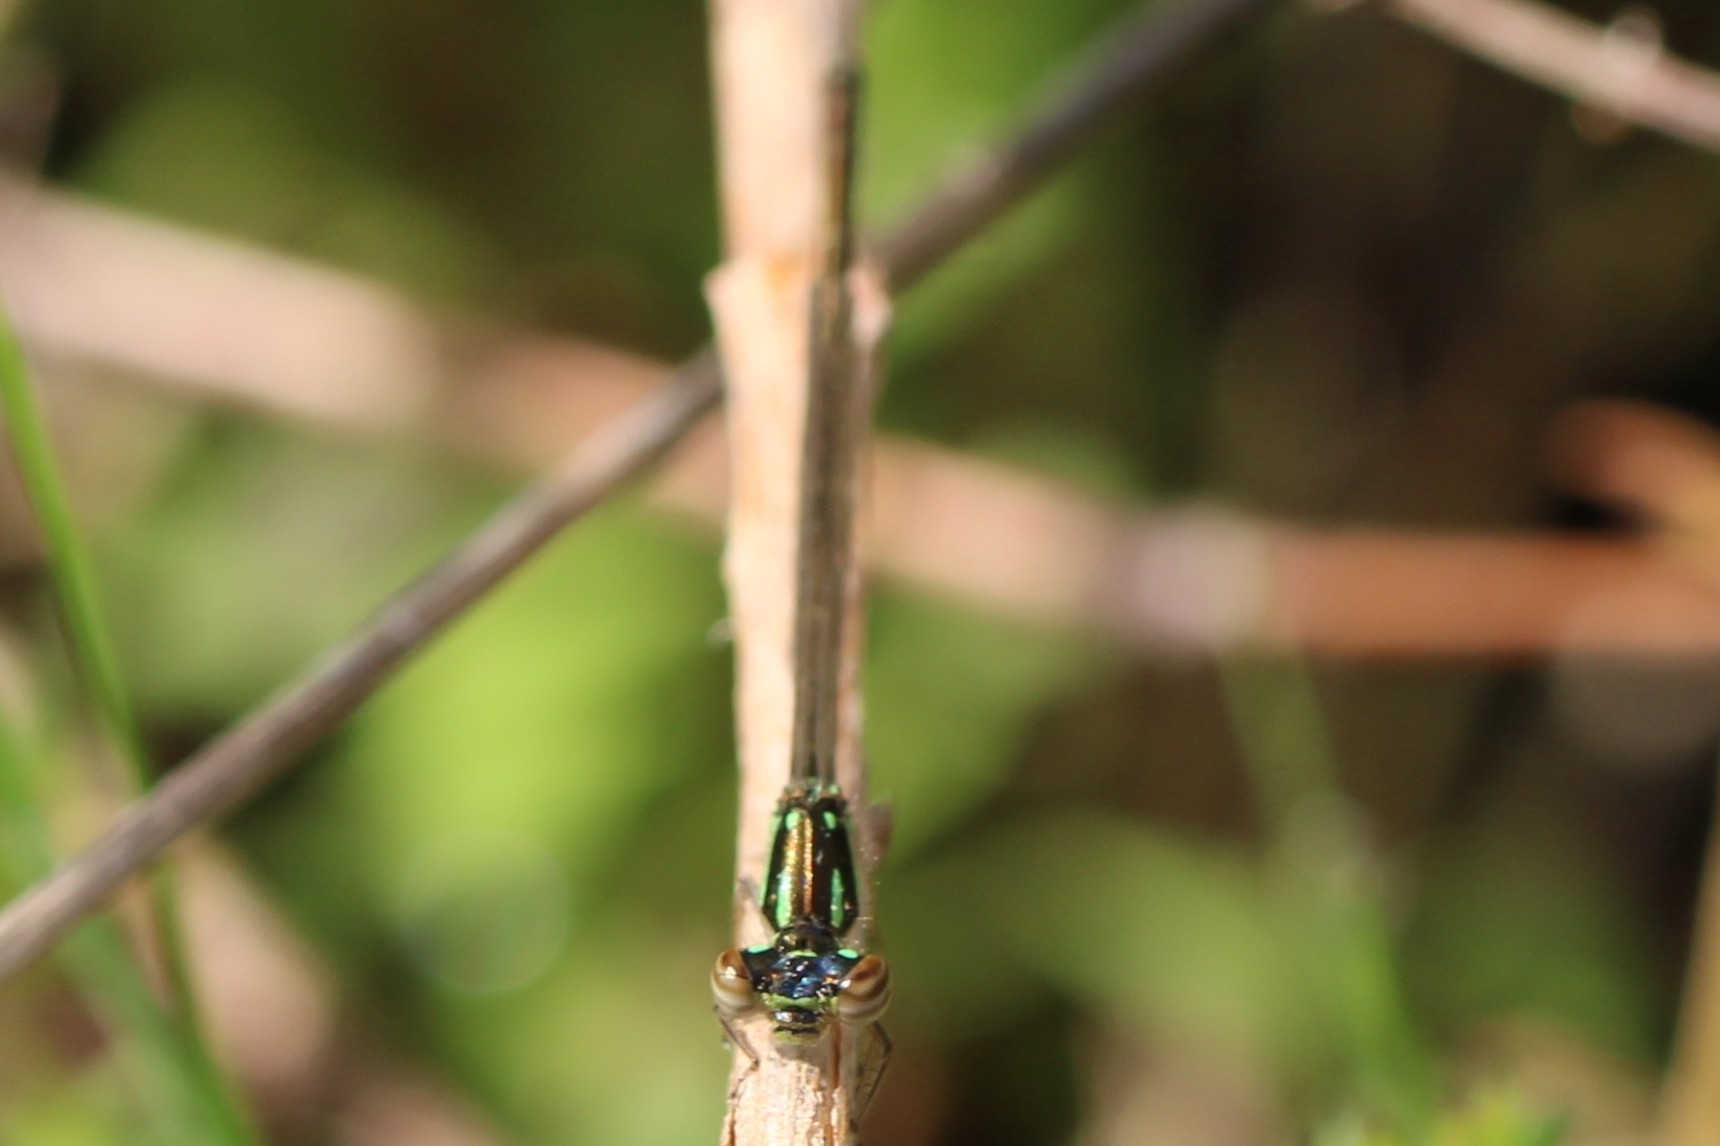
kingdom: Animalia
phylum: Arthropoda
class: Insecta
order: Odonata
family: Coenagrionidae
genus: Ischnura
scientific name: Ischnura posita
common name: Fragile forktail
